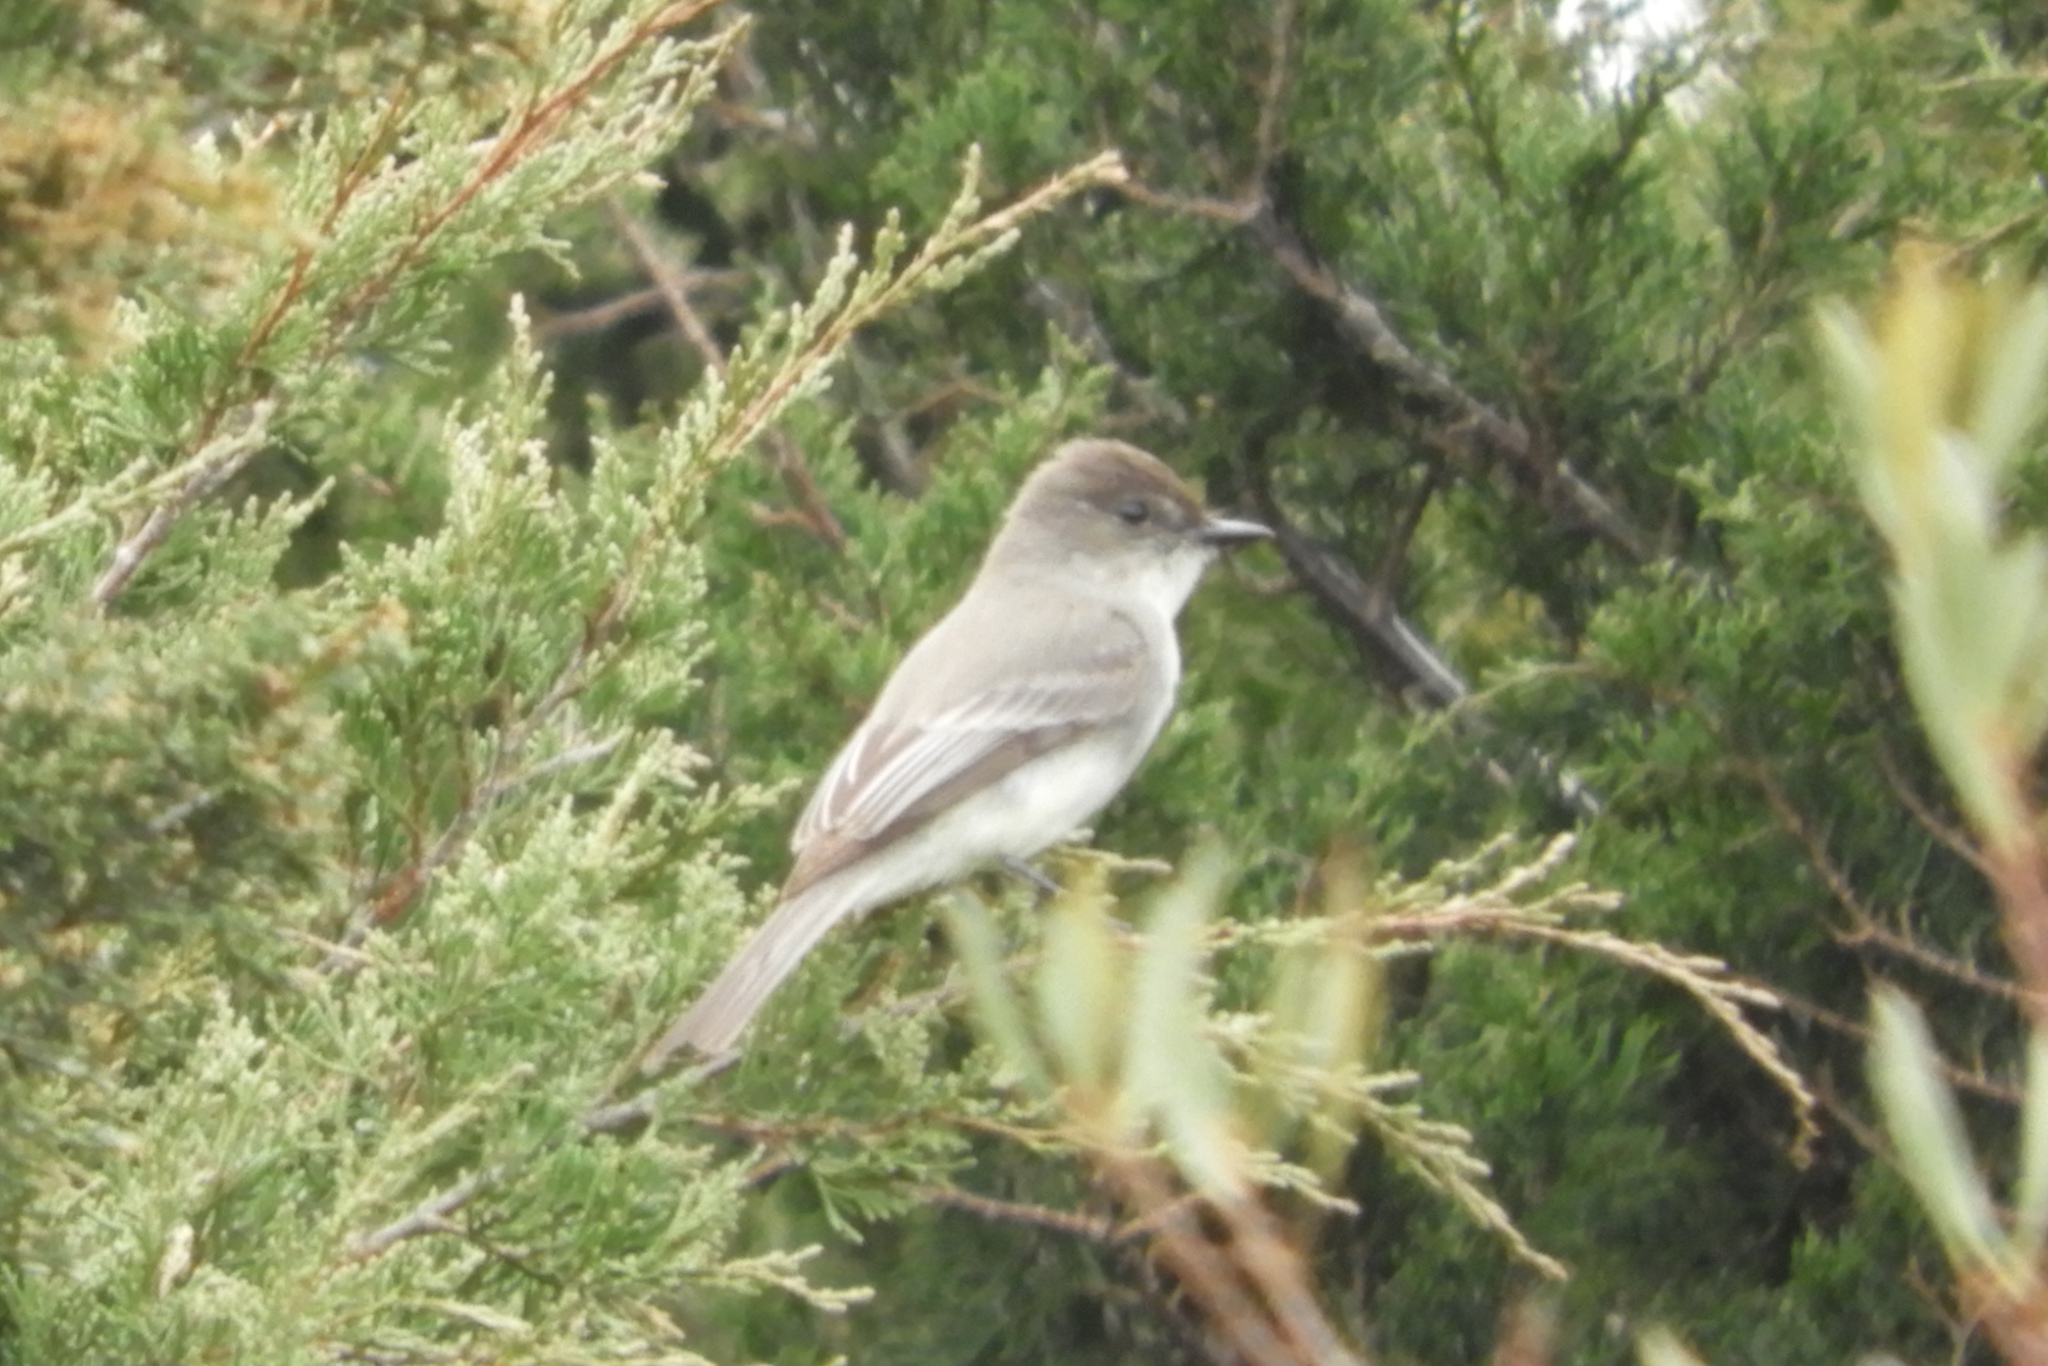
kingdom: Animalia
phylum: Chordata
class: Aves
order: Passeriformes
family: Tyrannidae
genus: Sayornis
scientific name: Sayornis phoebe
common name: Eastern phoebe
